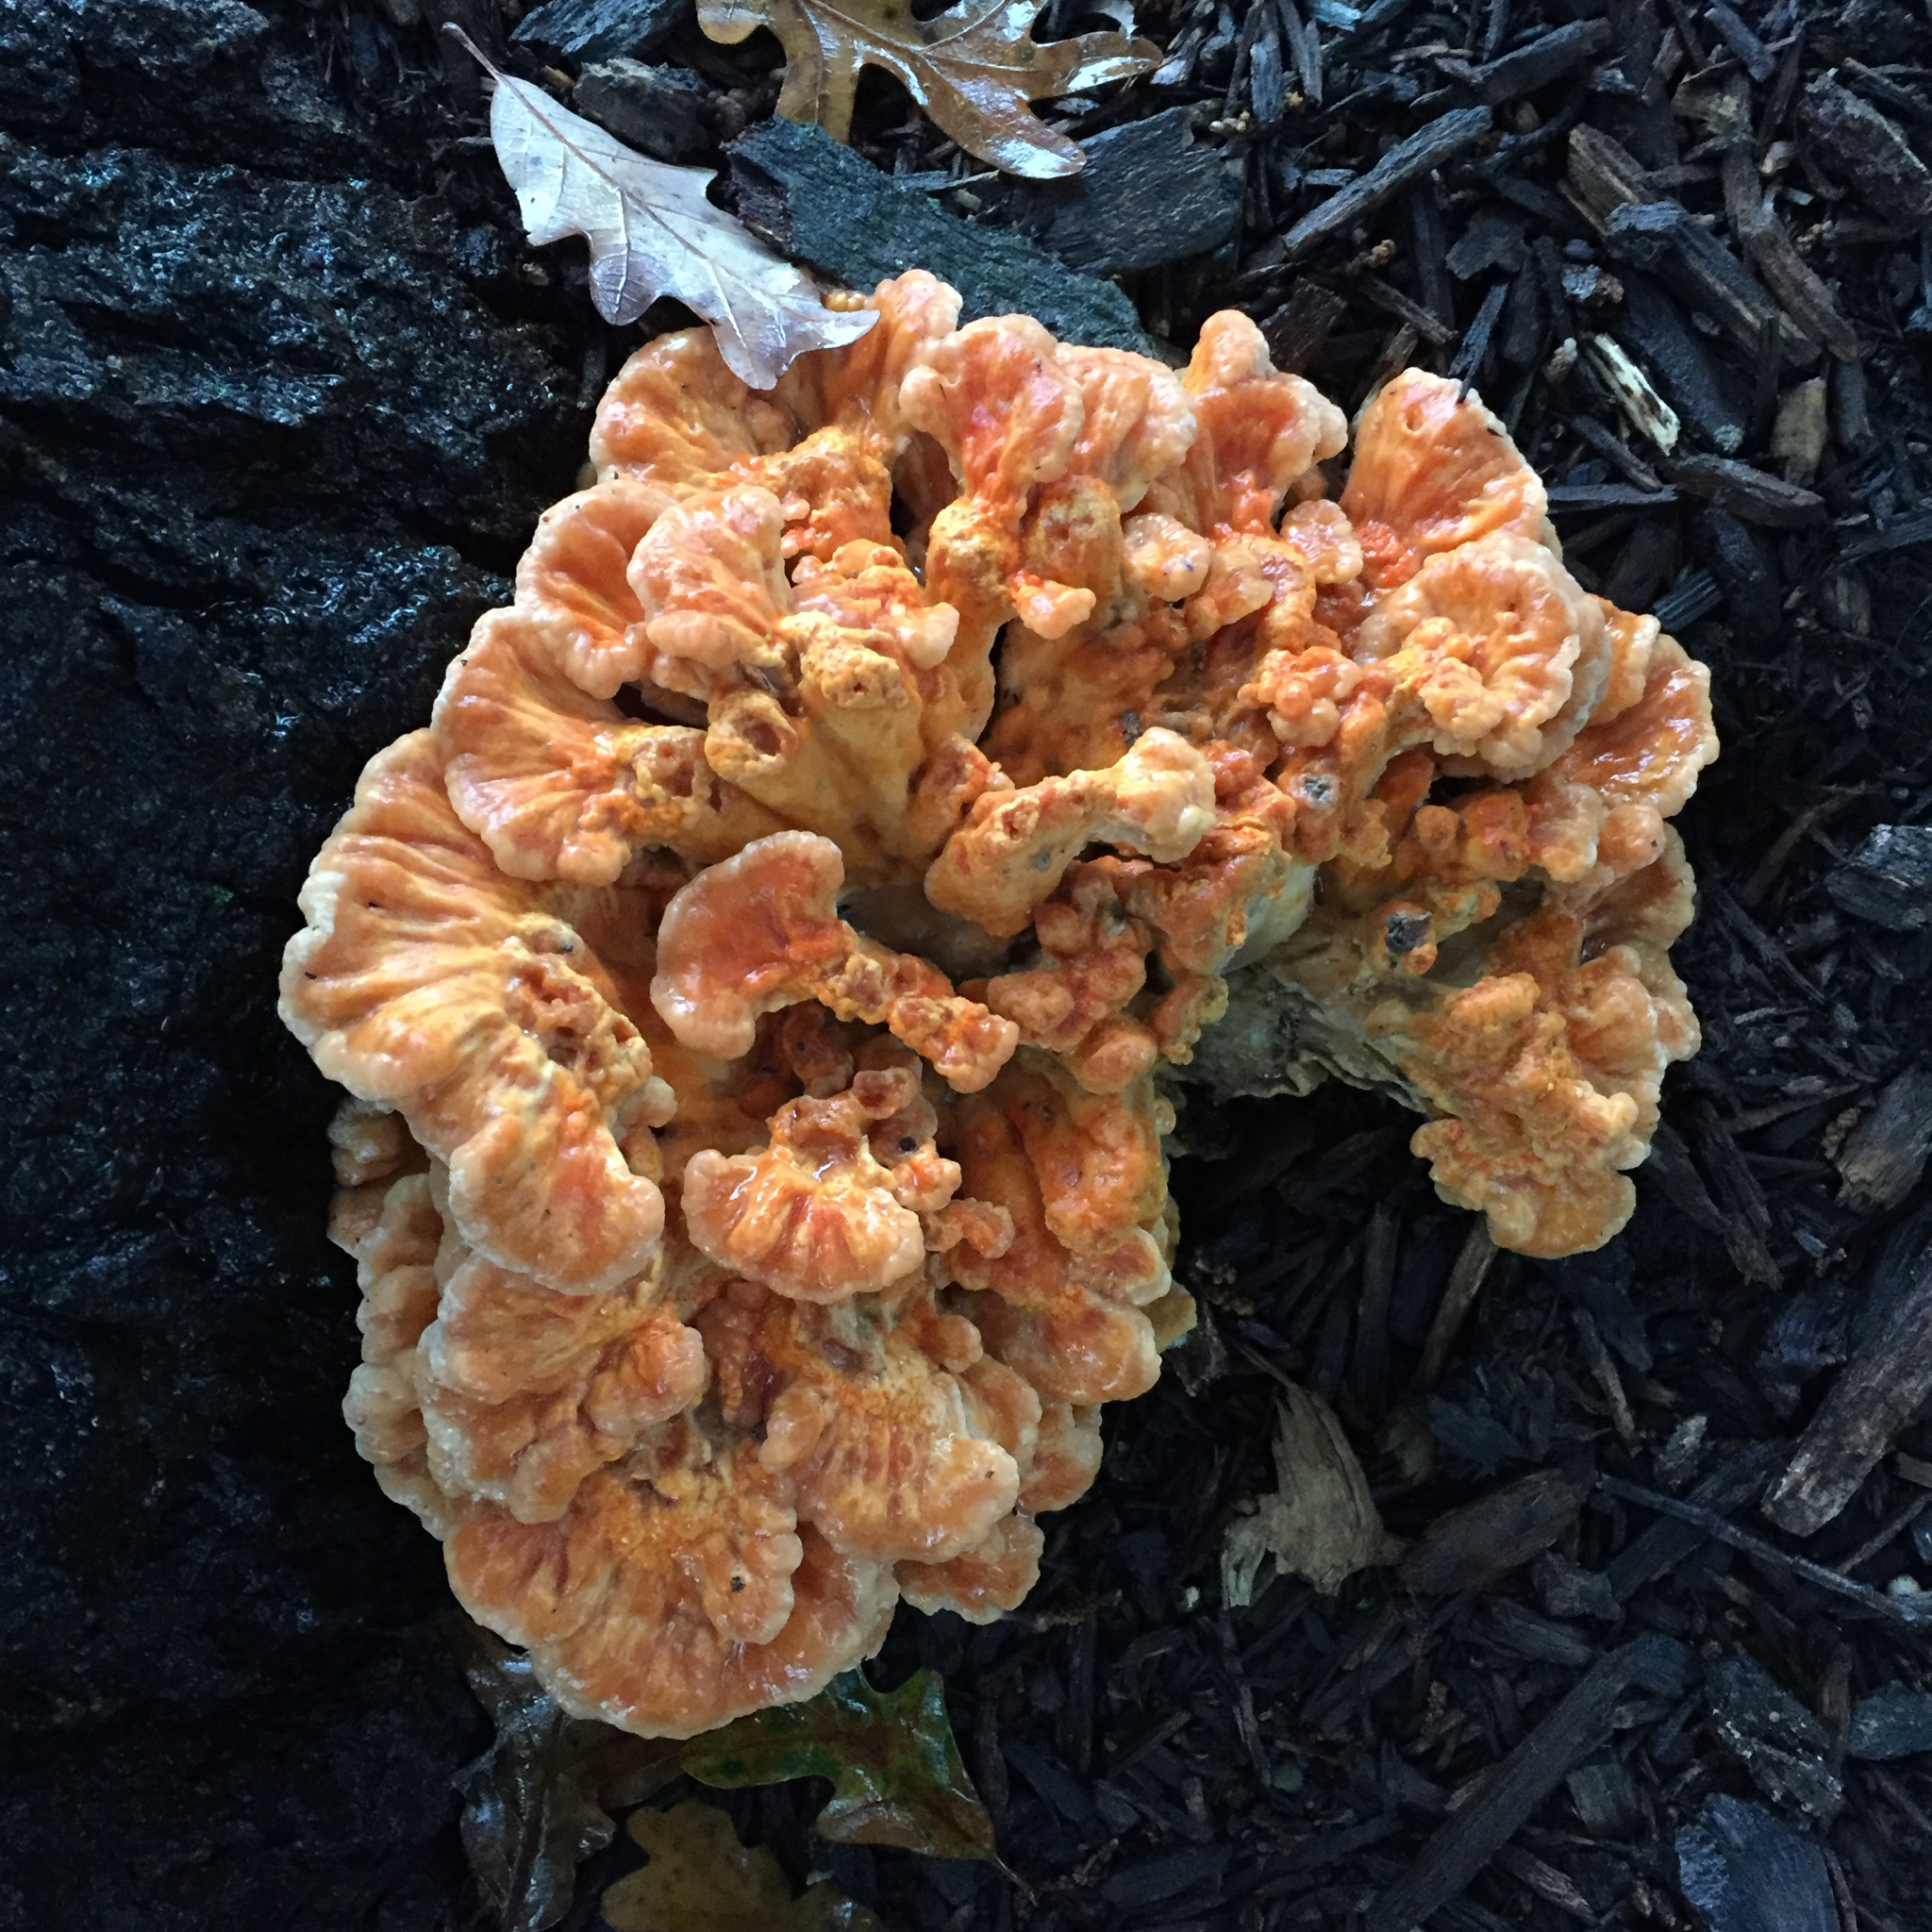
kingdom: Fungi
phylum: Basidiomycota
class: Agaricomycetes
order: Polyporales
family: Laetiporaceae
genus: Laetiporus
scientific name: Laetiporus sulphureus
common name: Chicken of the woods
